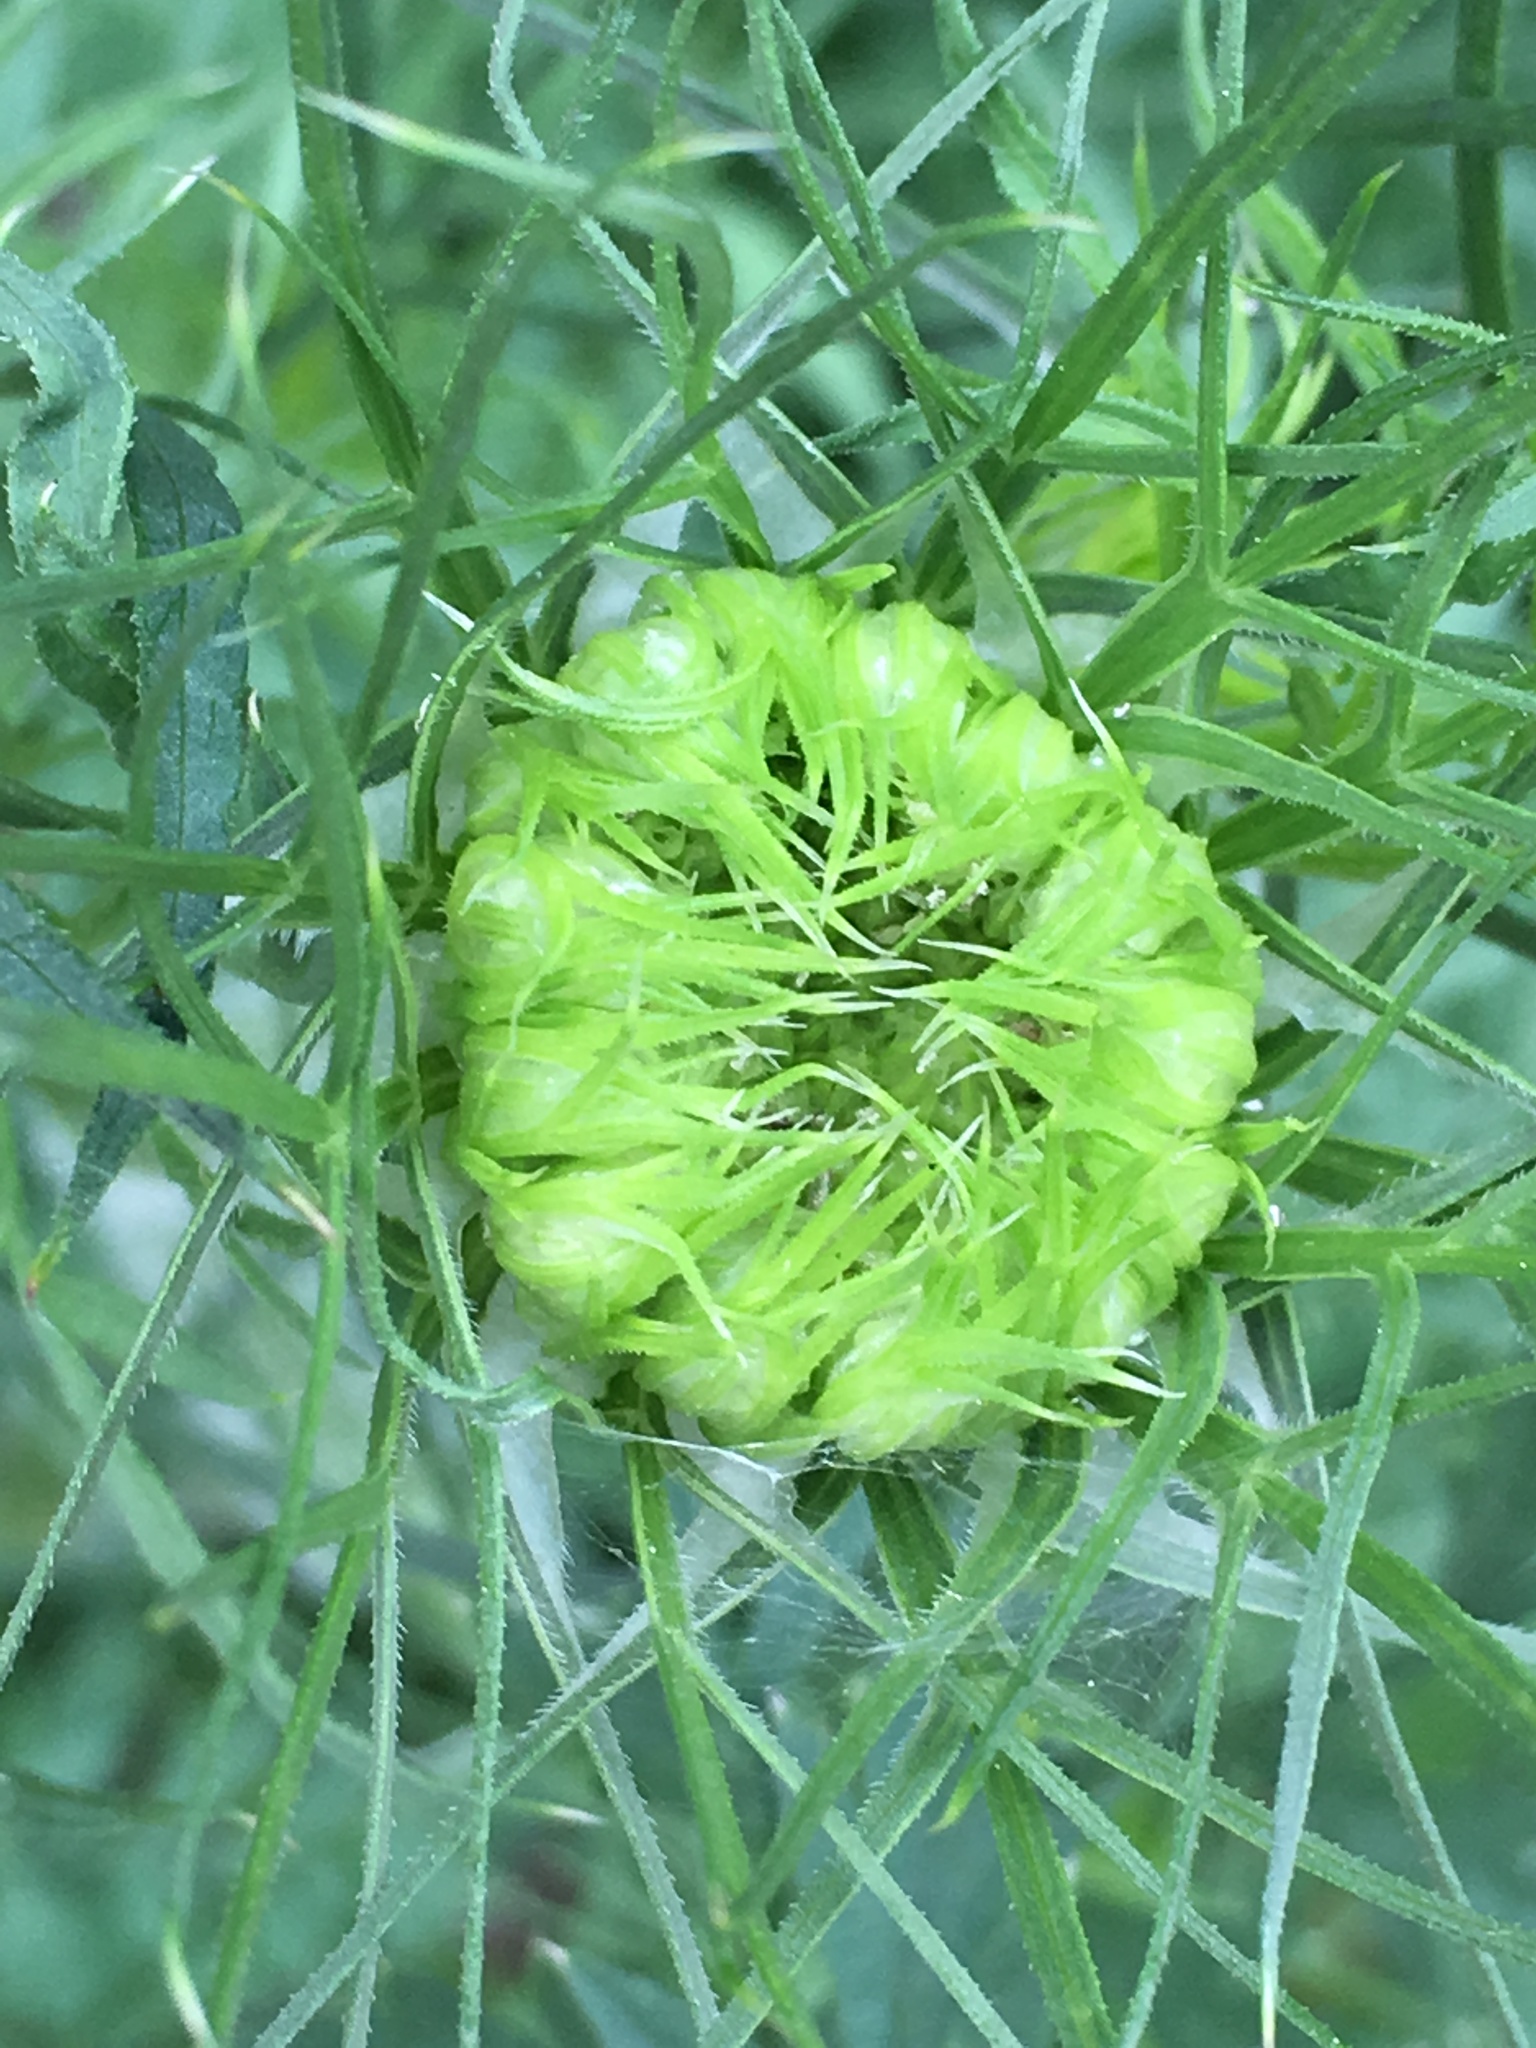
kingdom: Plantae
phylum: Tracheophyta
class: Magnoliopsida
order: Apiales
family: Apiaceae
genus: Daucus
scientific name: Daucus carota
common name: Wild carrot
